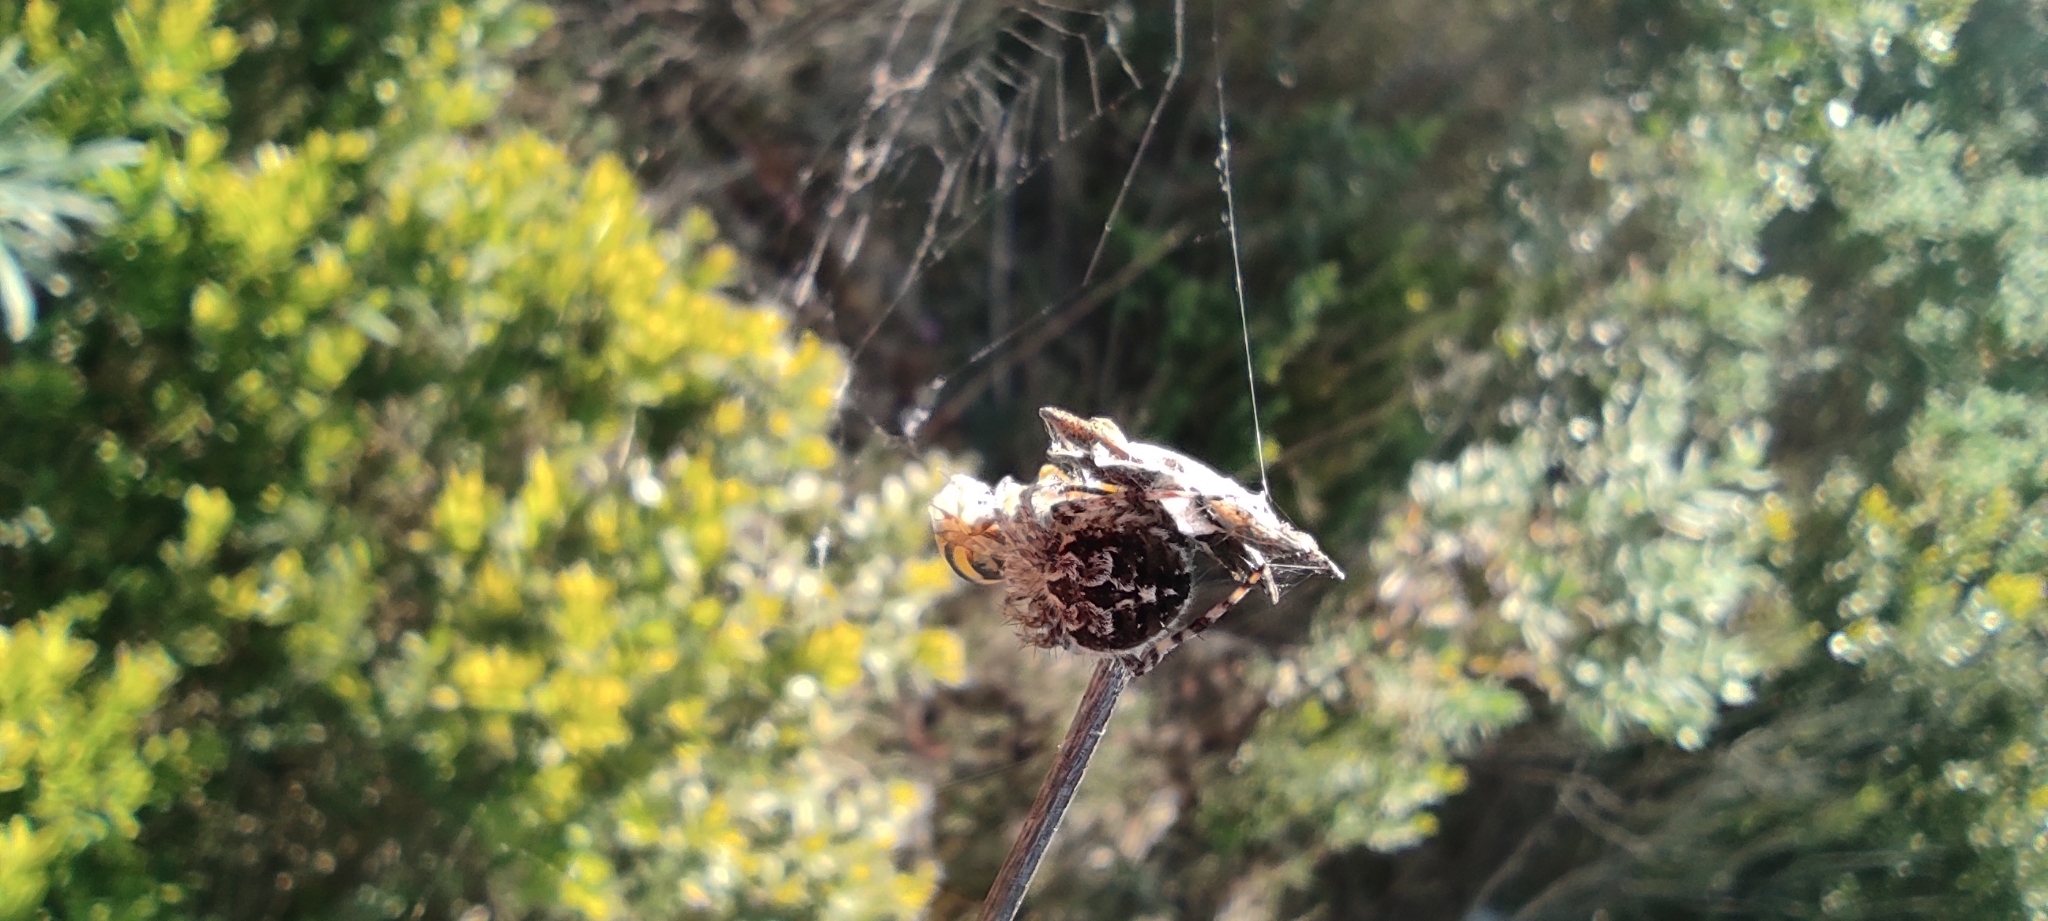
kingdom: Animalia
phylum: Arthropoda
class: Arachnida
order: Araneae
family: Araneidae
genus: Agalenatea
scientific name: Agalenatea redii
